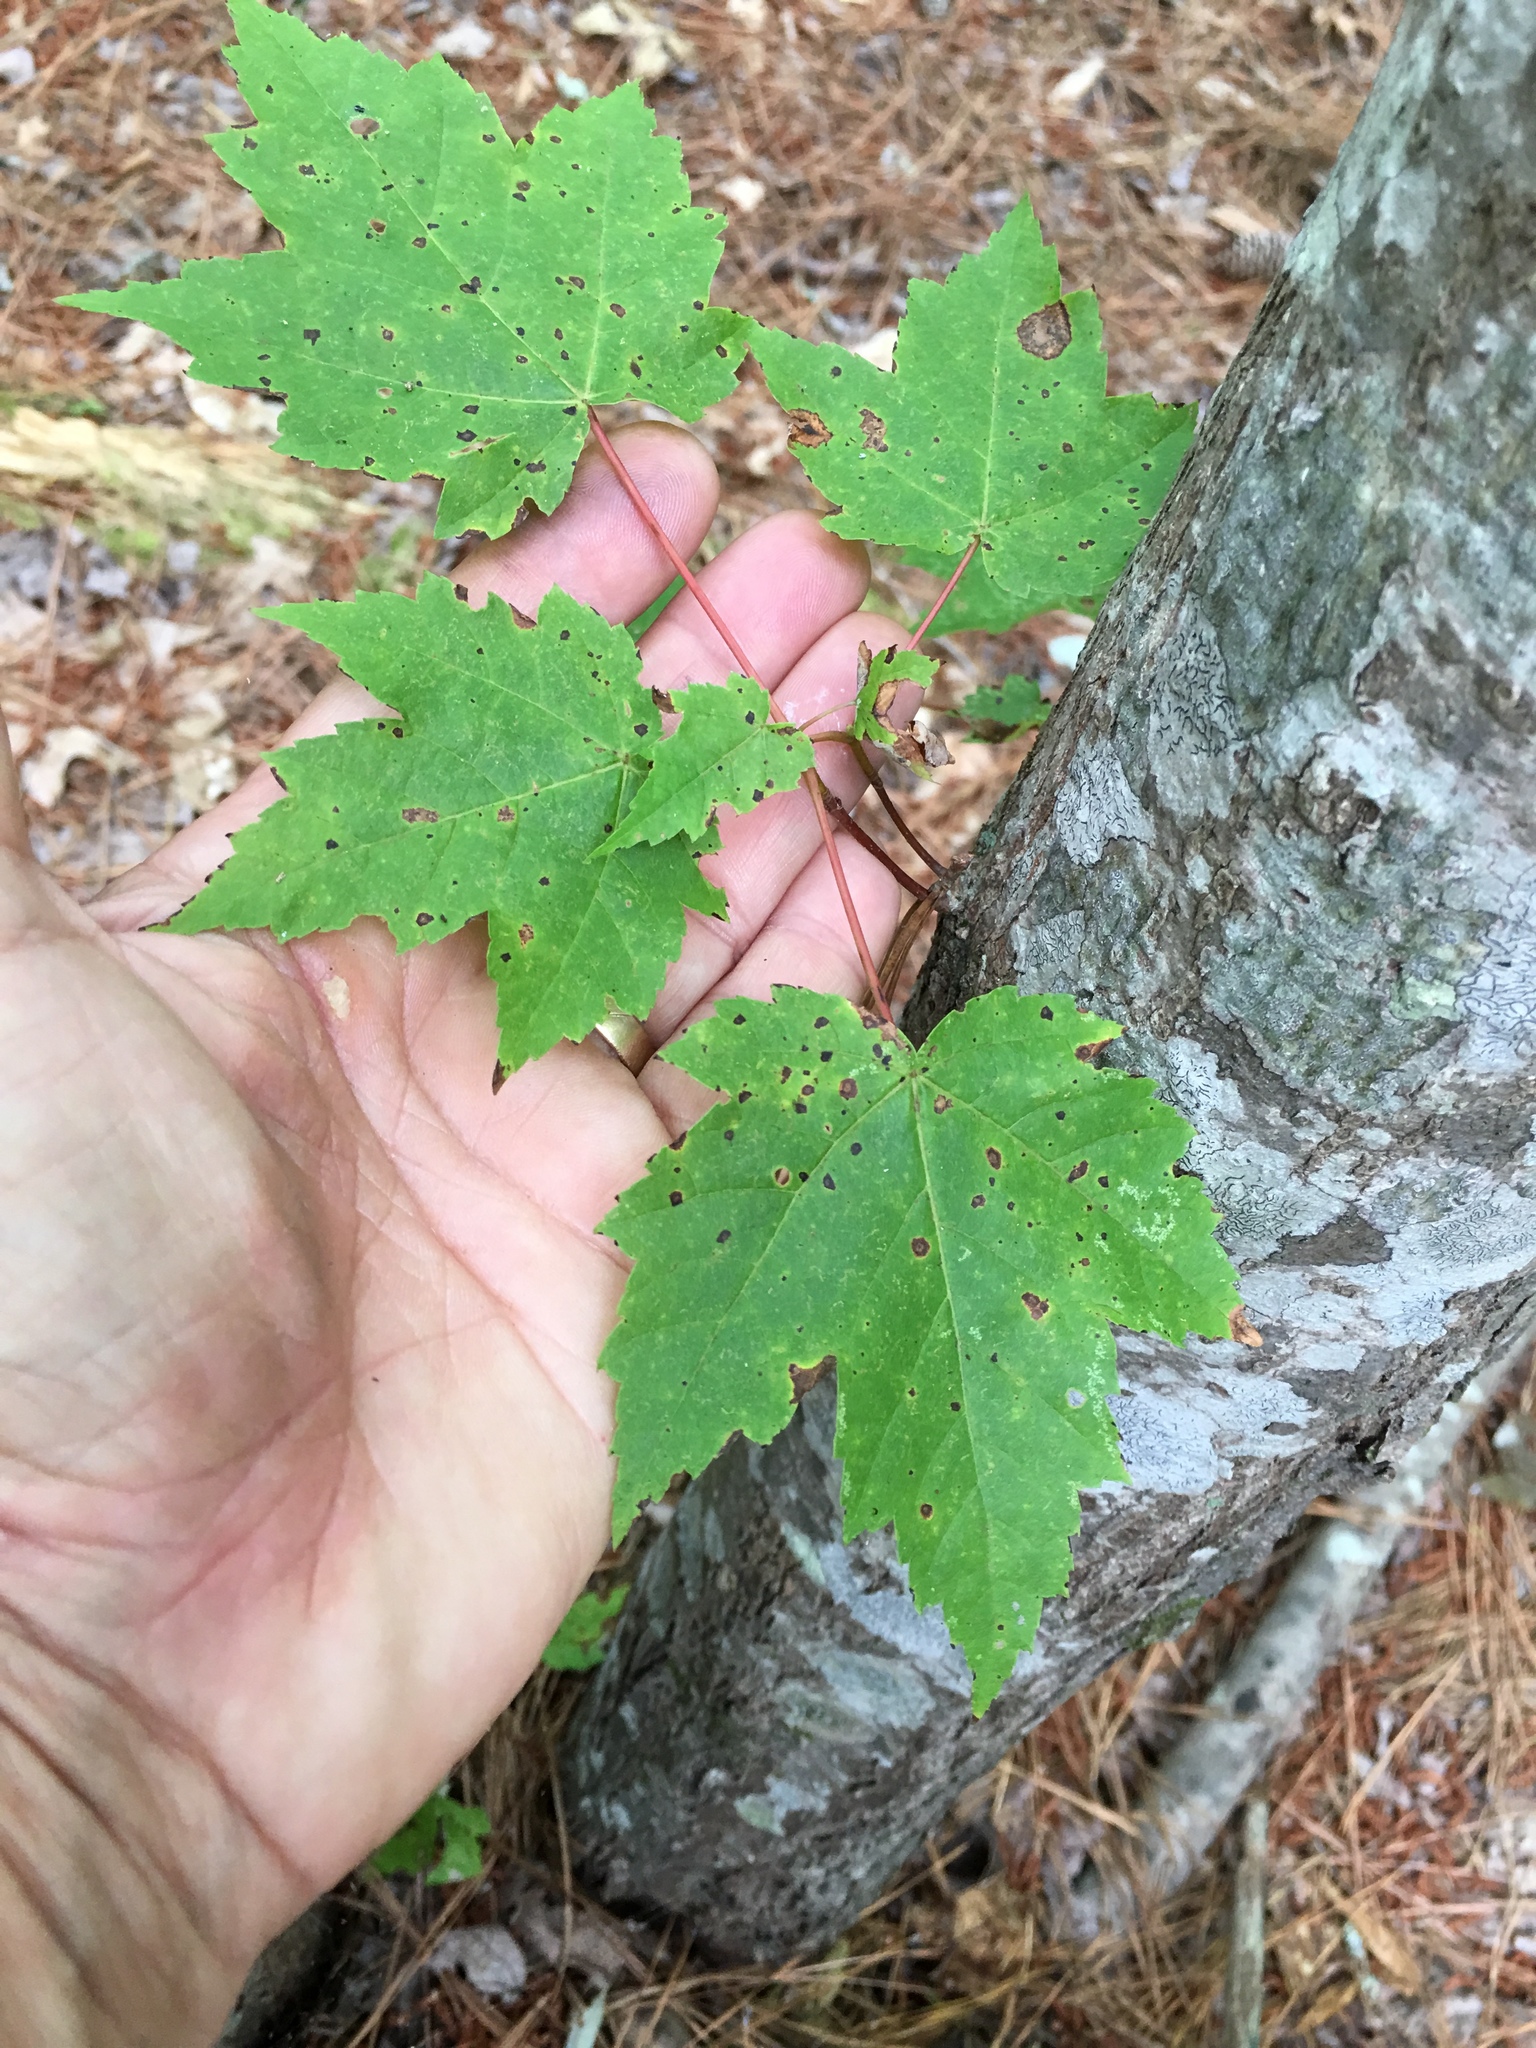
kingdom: Plantae
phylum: Tracheophyta
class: Magnoliopsida
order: Sapindales
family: Sapindaceae
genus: Acer
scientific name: Acer rubrum
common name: Red maple
